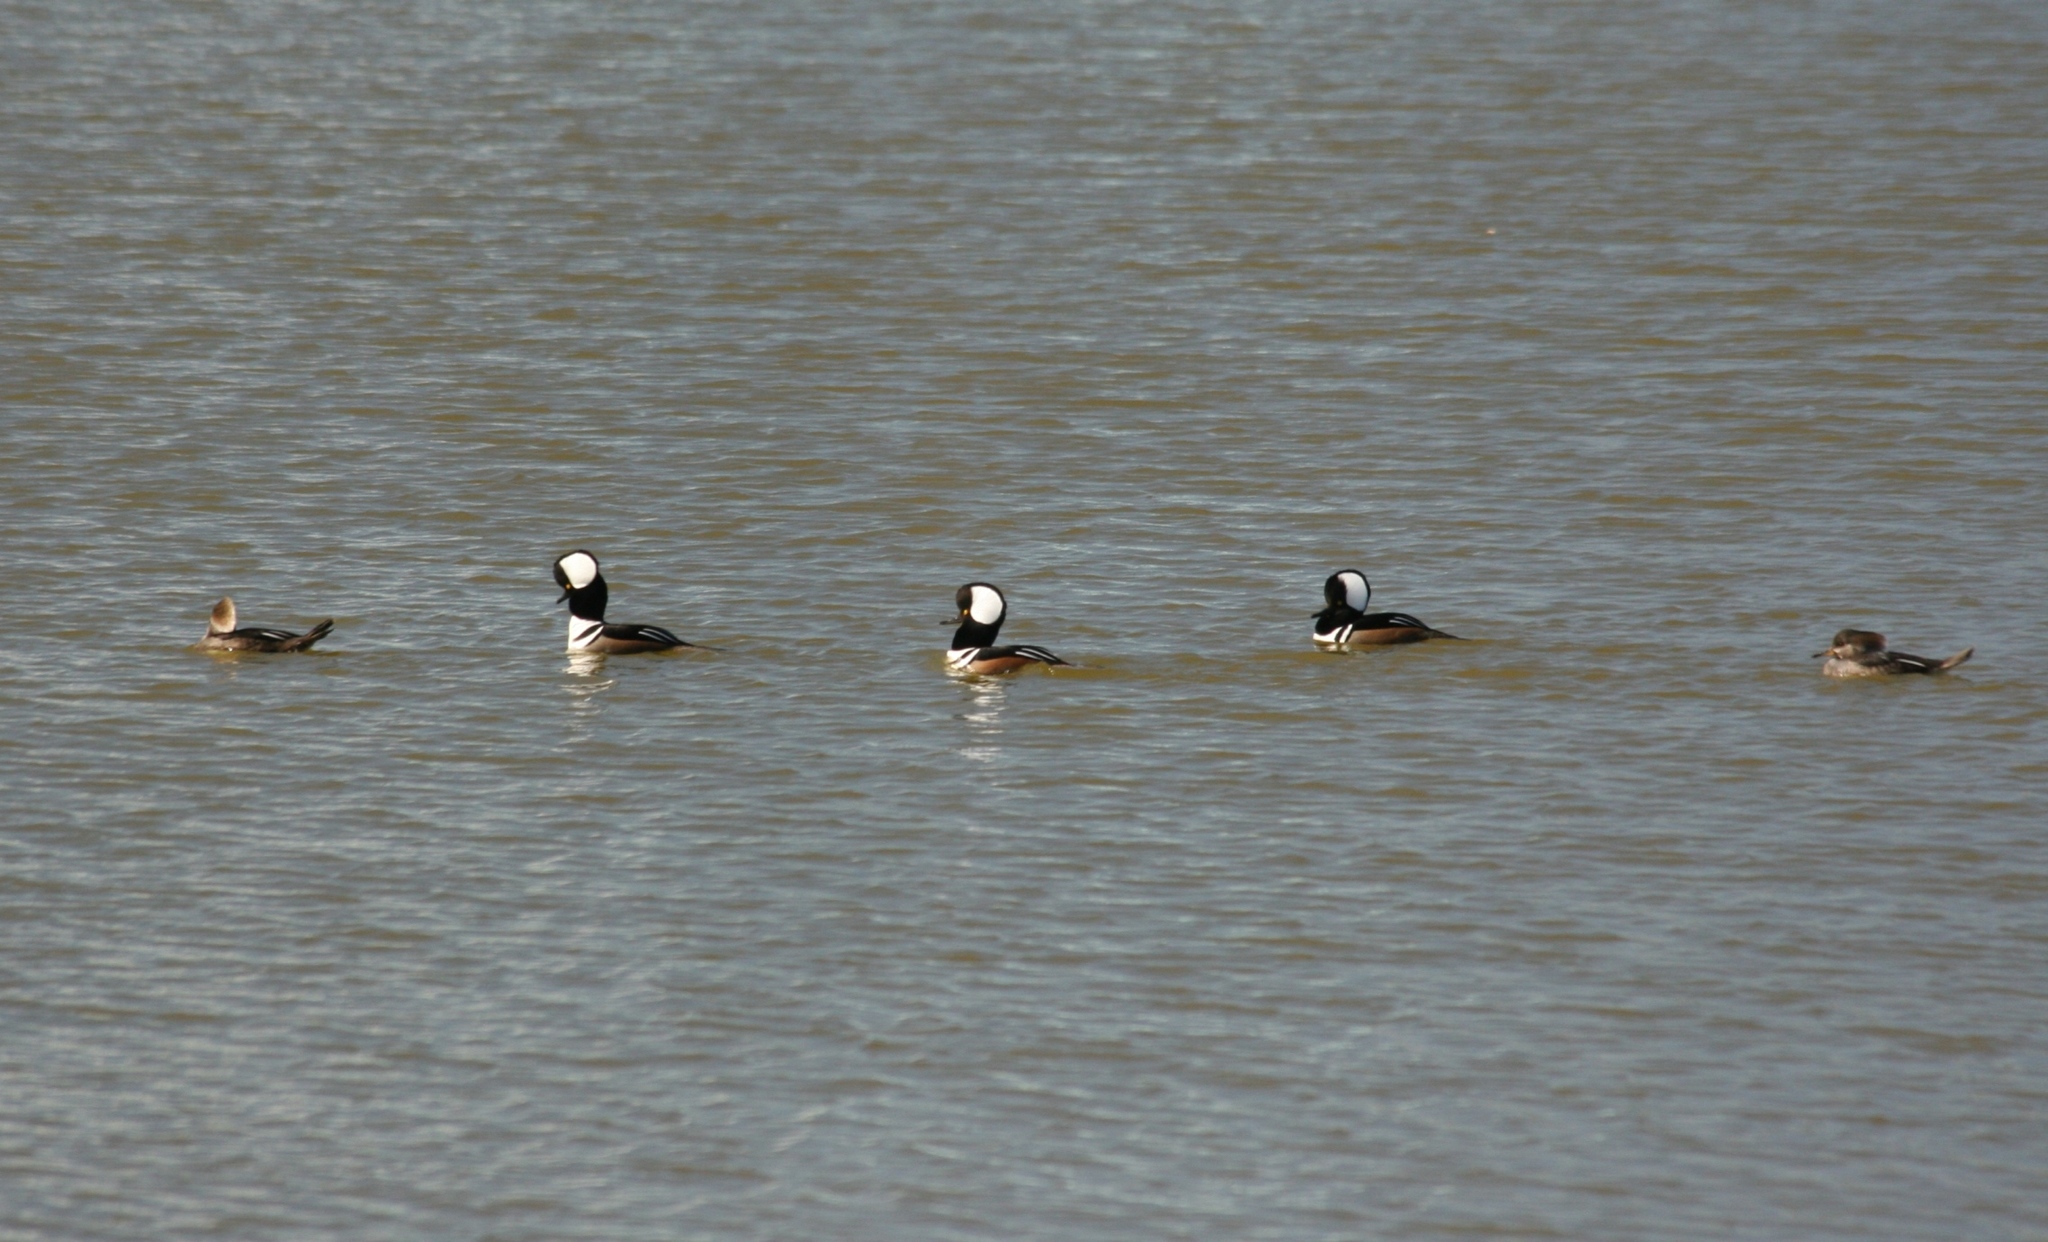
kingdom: Animalia
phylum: Chordata
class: Aves
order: Anseriformes
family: Anatidae
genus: Lophodytes
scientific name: Lophodytes cucullatus
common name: Hooded merganser
